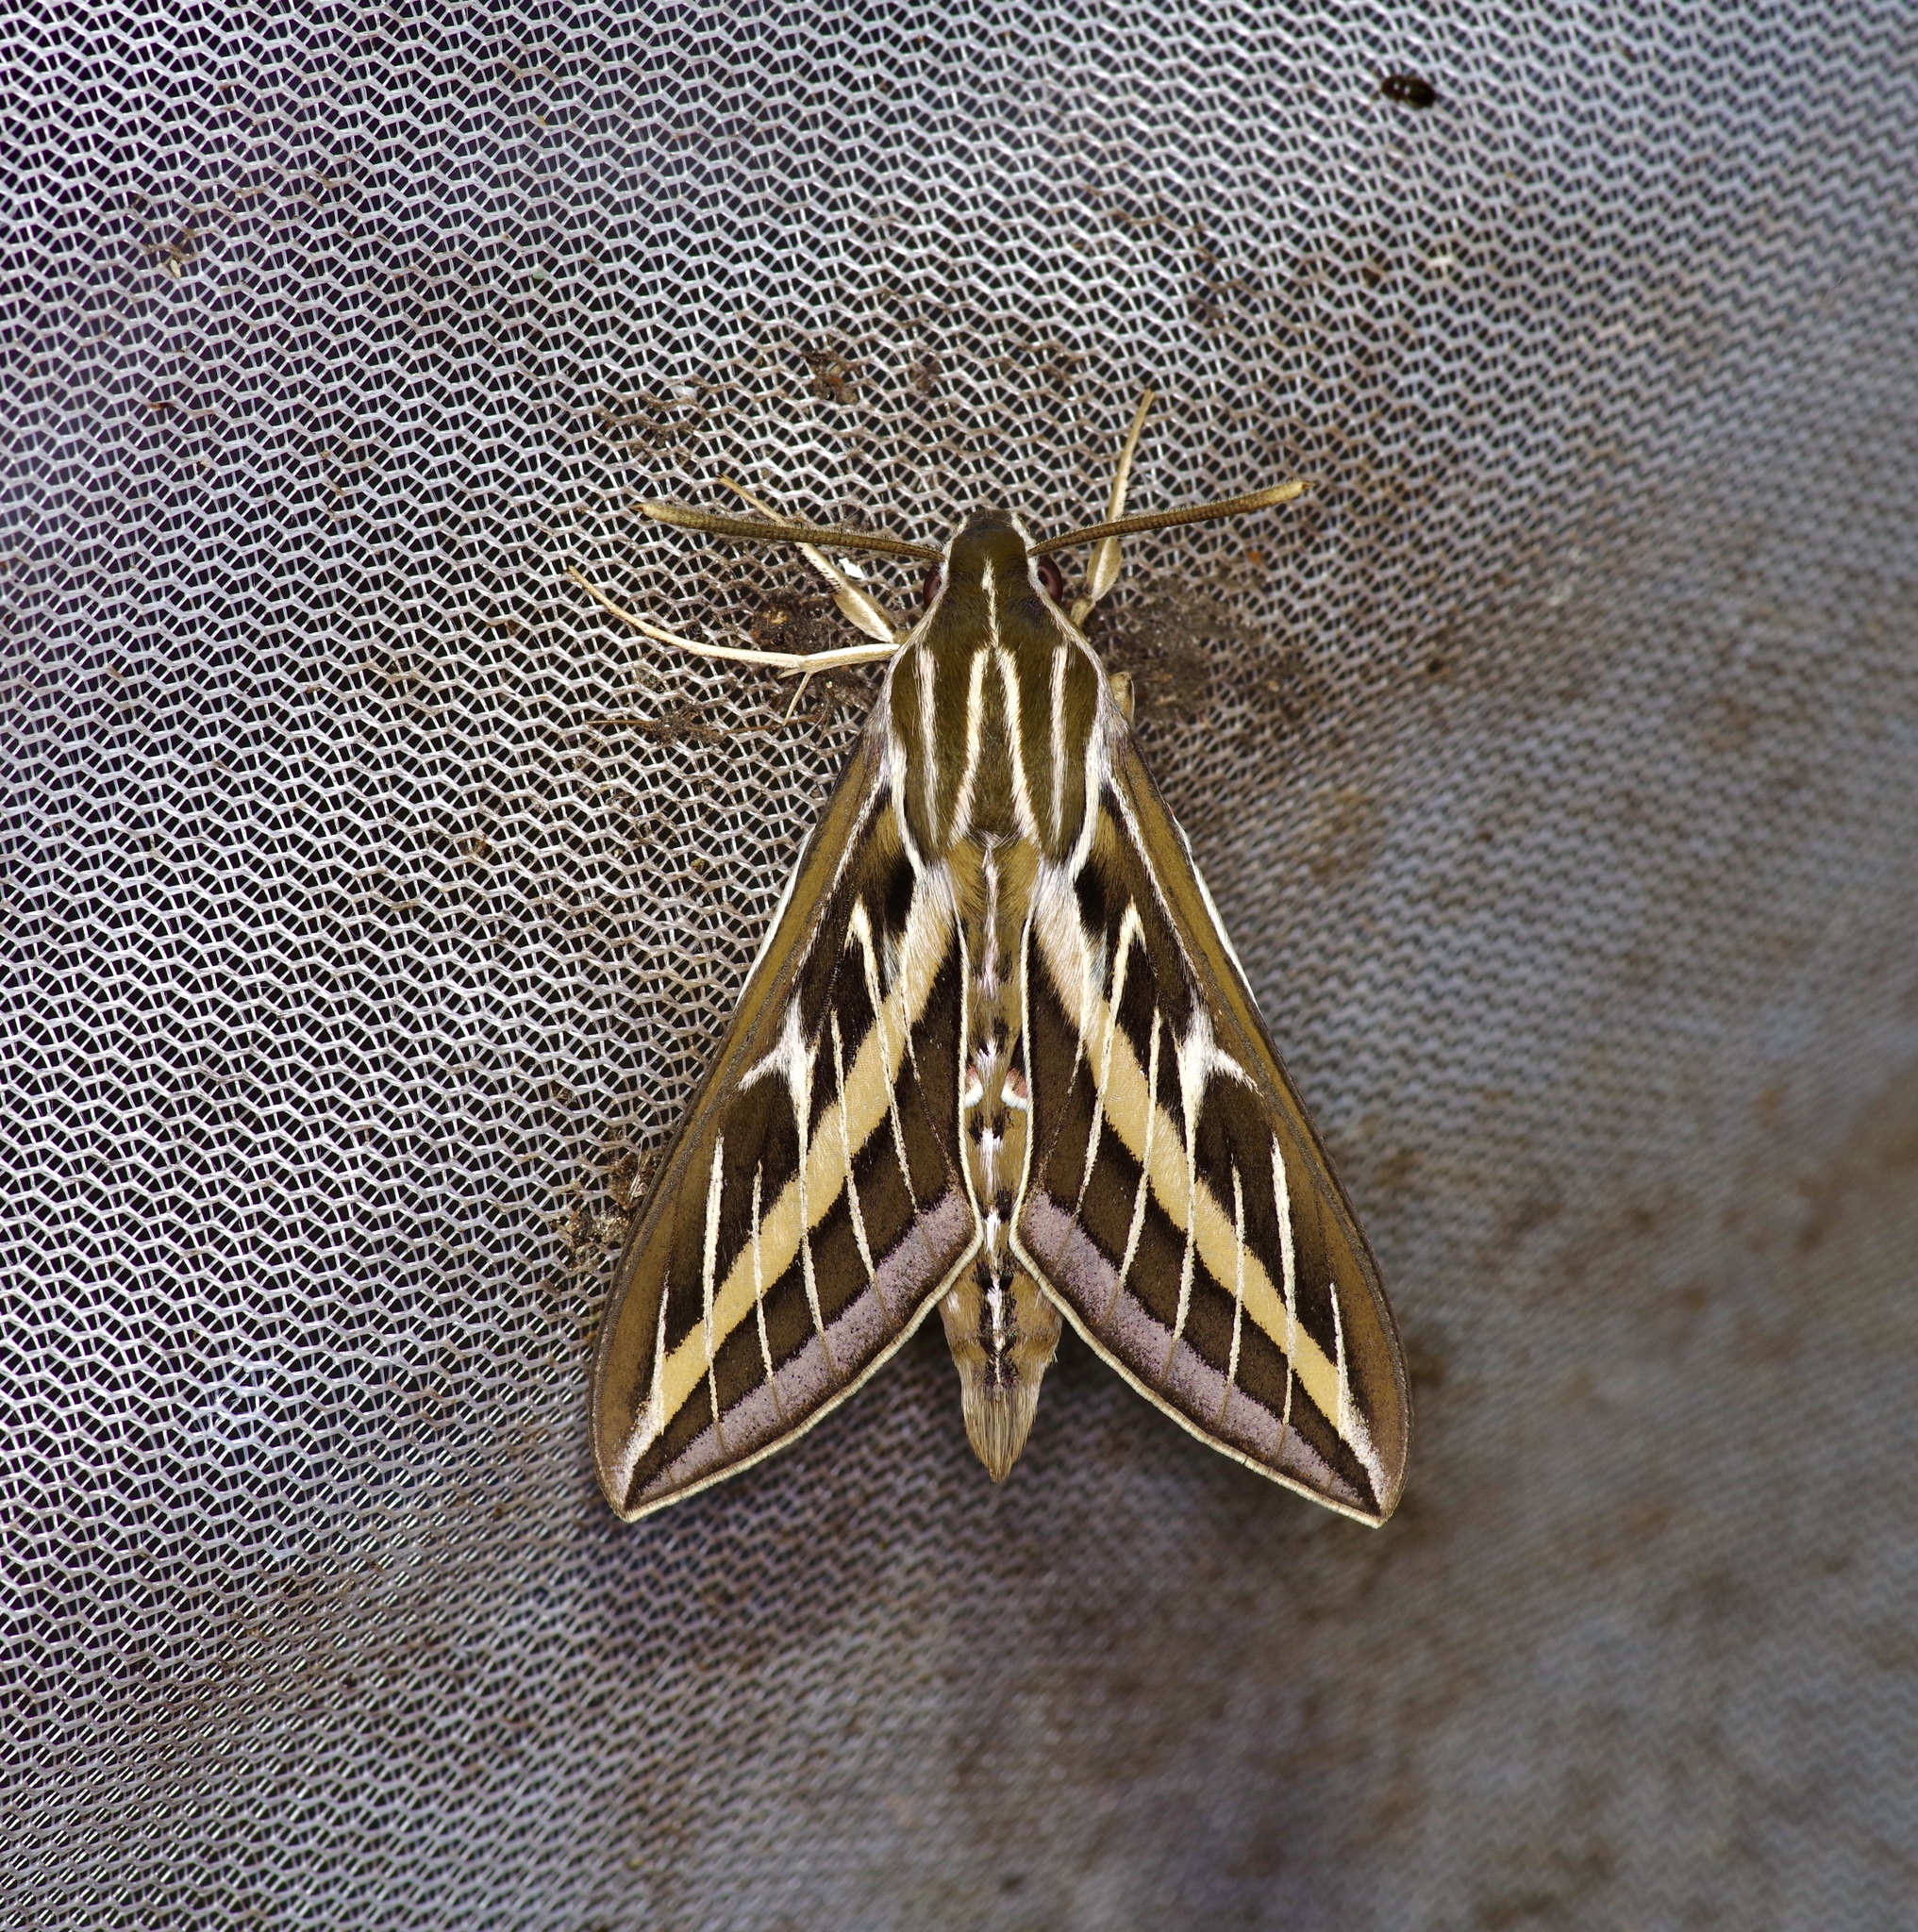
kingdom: Animalia
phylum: Arthropoda
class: Insecta
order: Lepidoptera
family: Sphingidae
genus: Hyles
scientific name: Hyles lineata
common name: White-lined sphinx
